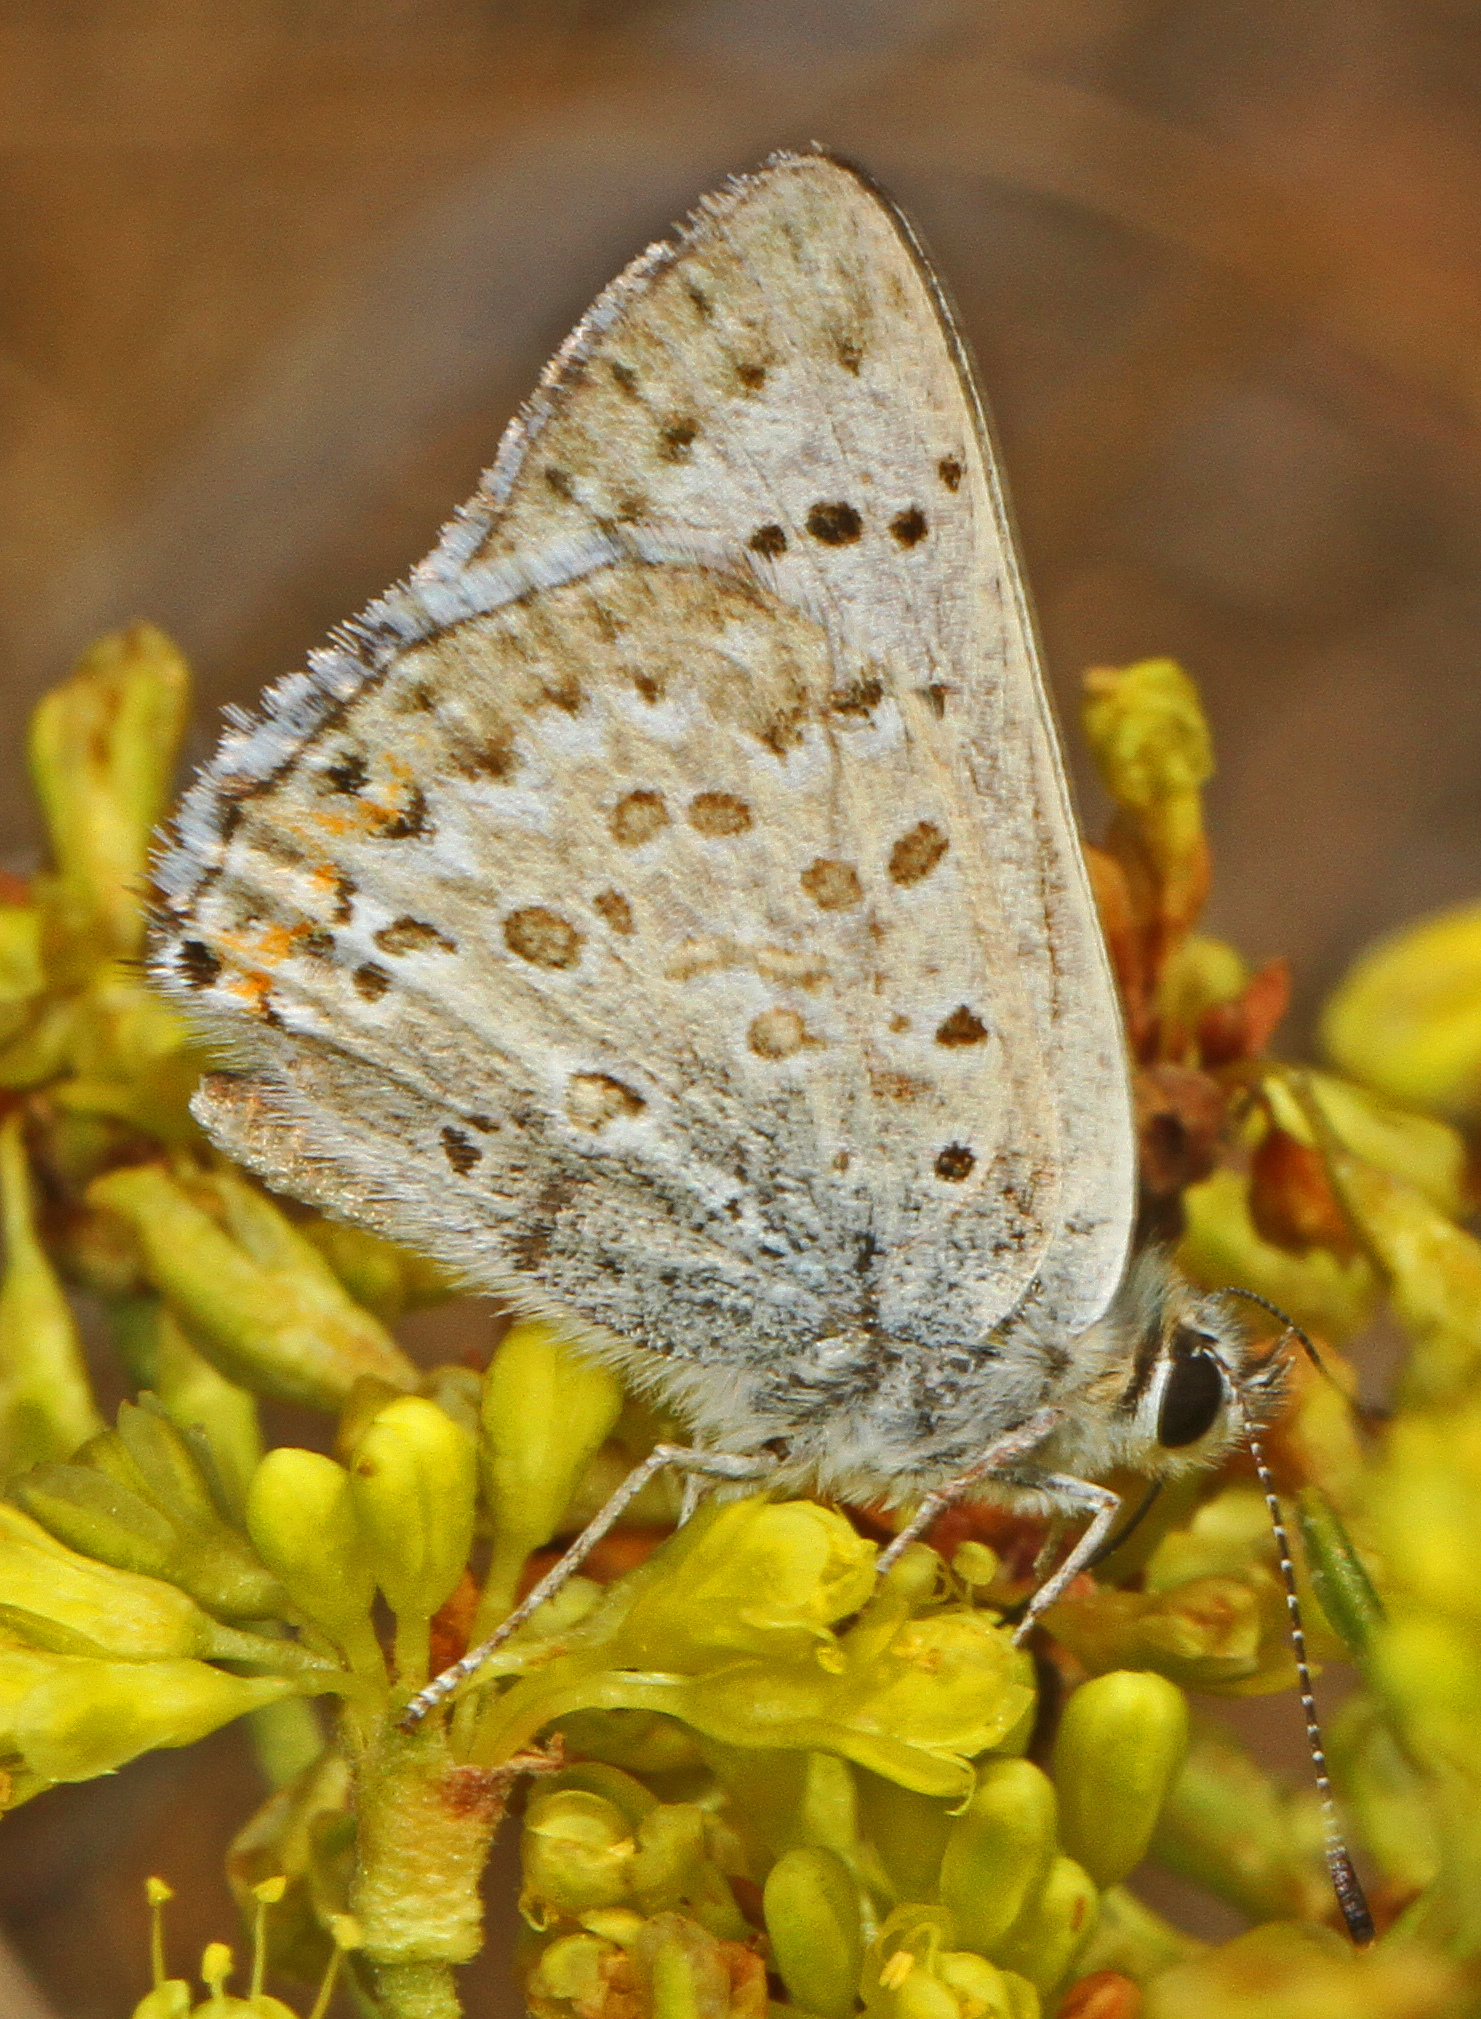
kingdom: Animalia
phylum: Arthropoda
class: Insecta
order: Lepidoptera
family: Lycaenidae
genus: Tharsalea
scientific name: Tharsalea editha
